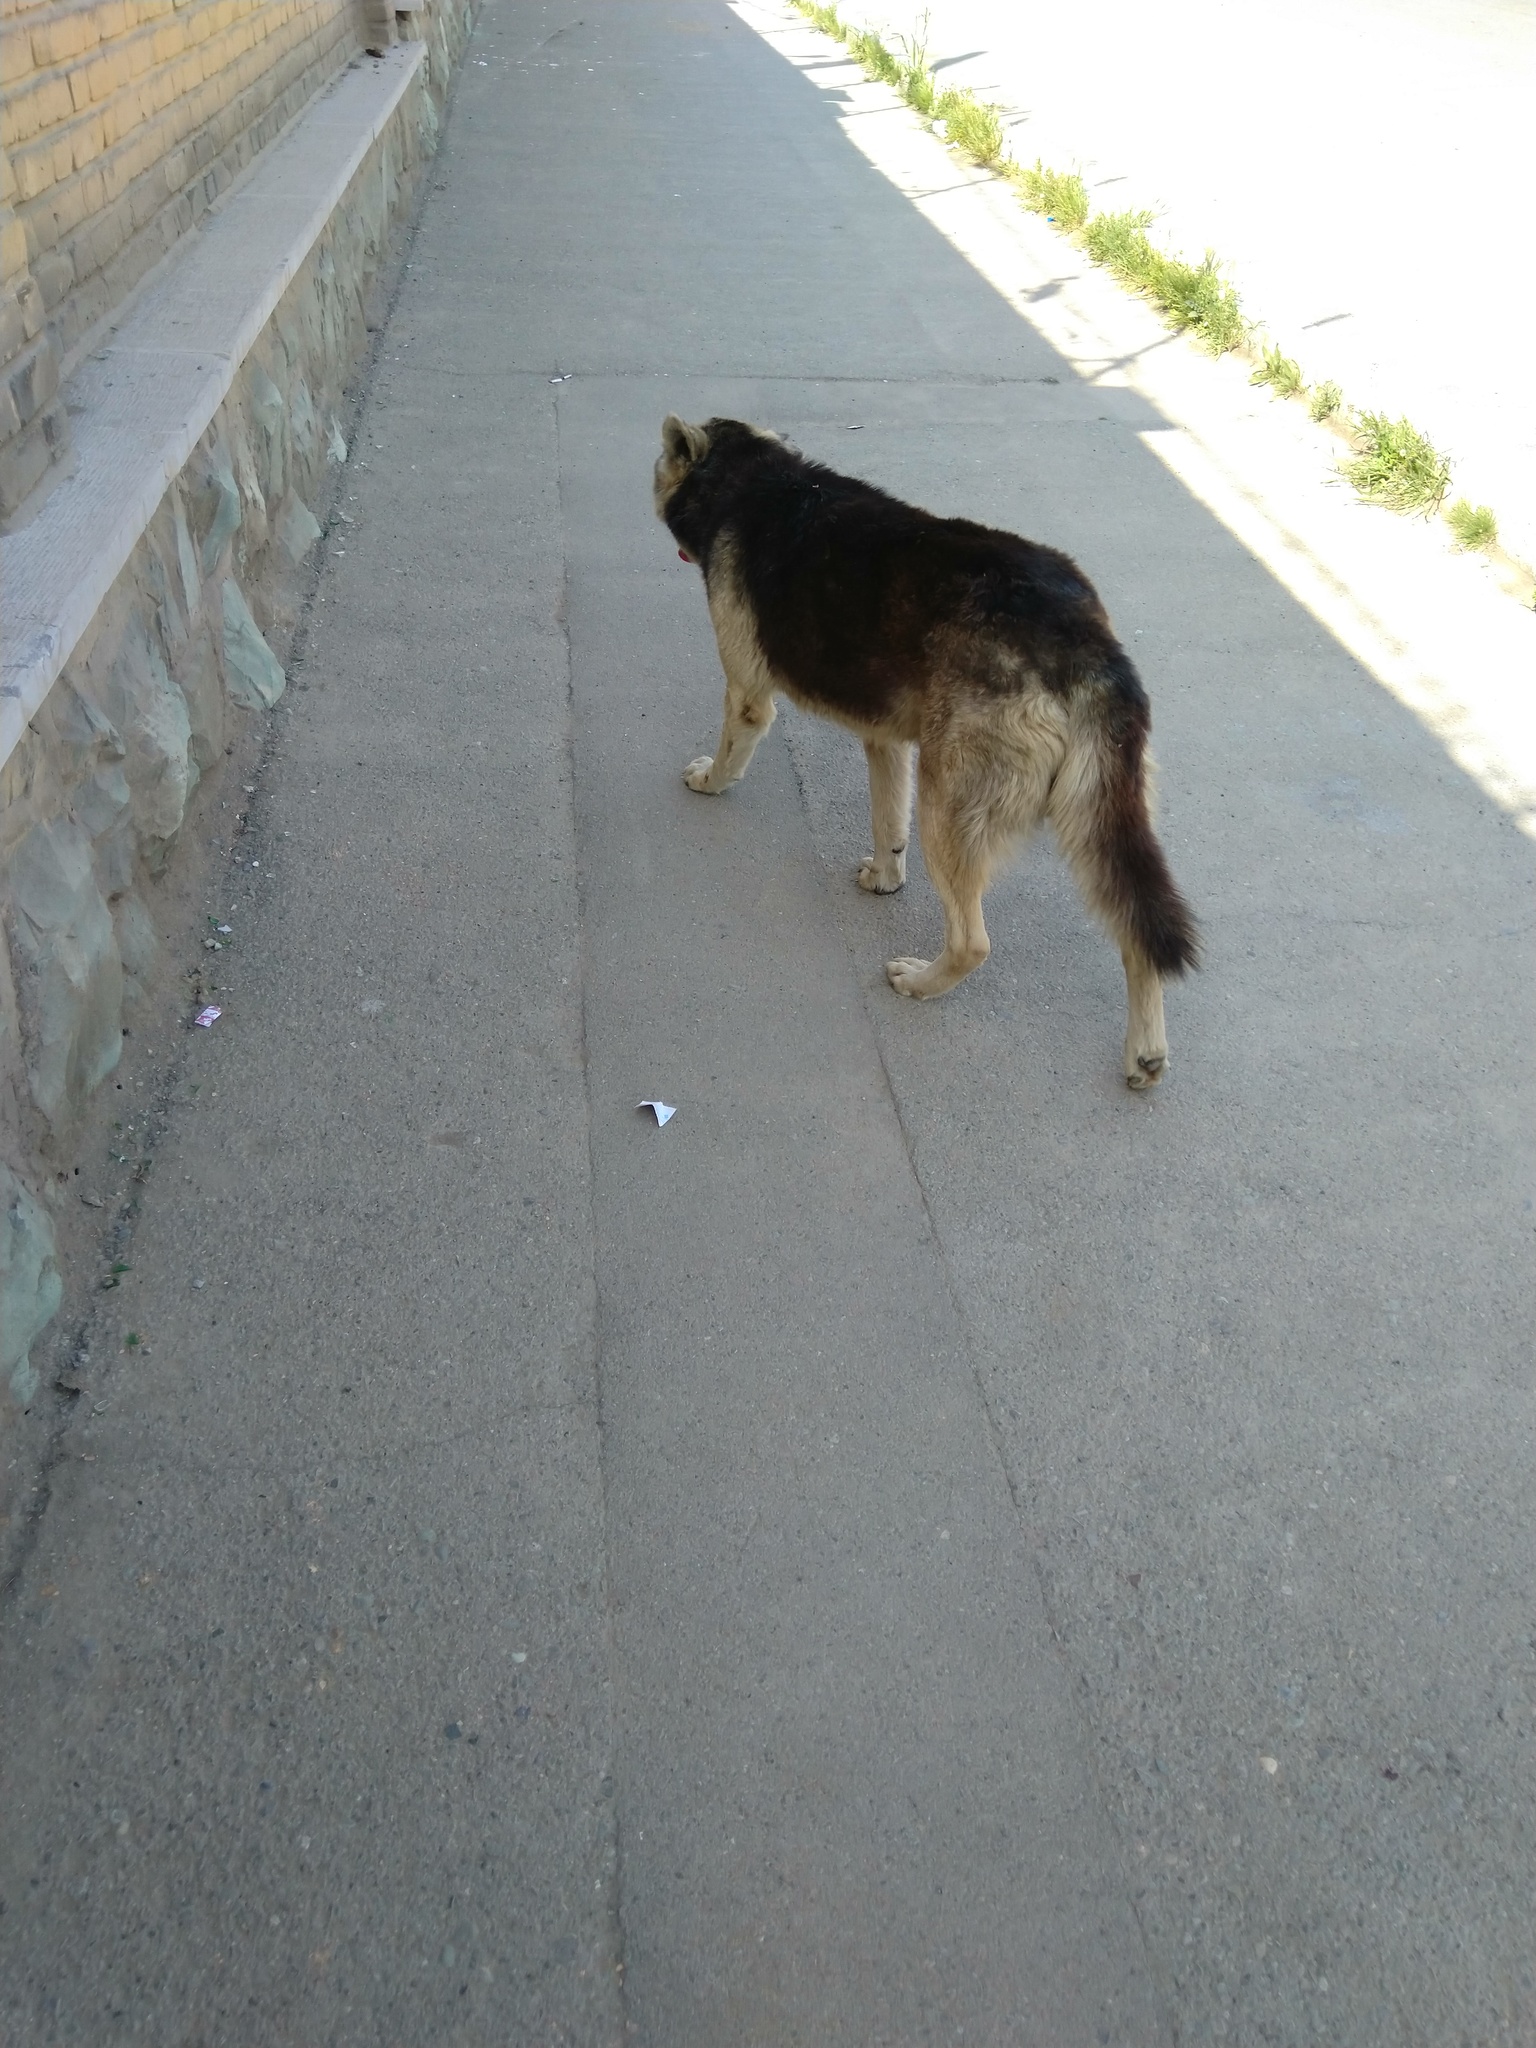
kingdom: Animalia
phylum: Chordata
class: Mammalia
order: Carnivora
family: Canidae
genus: Canis
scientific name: Canis lupus
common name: Gray wolf
